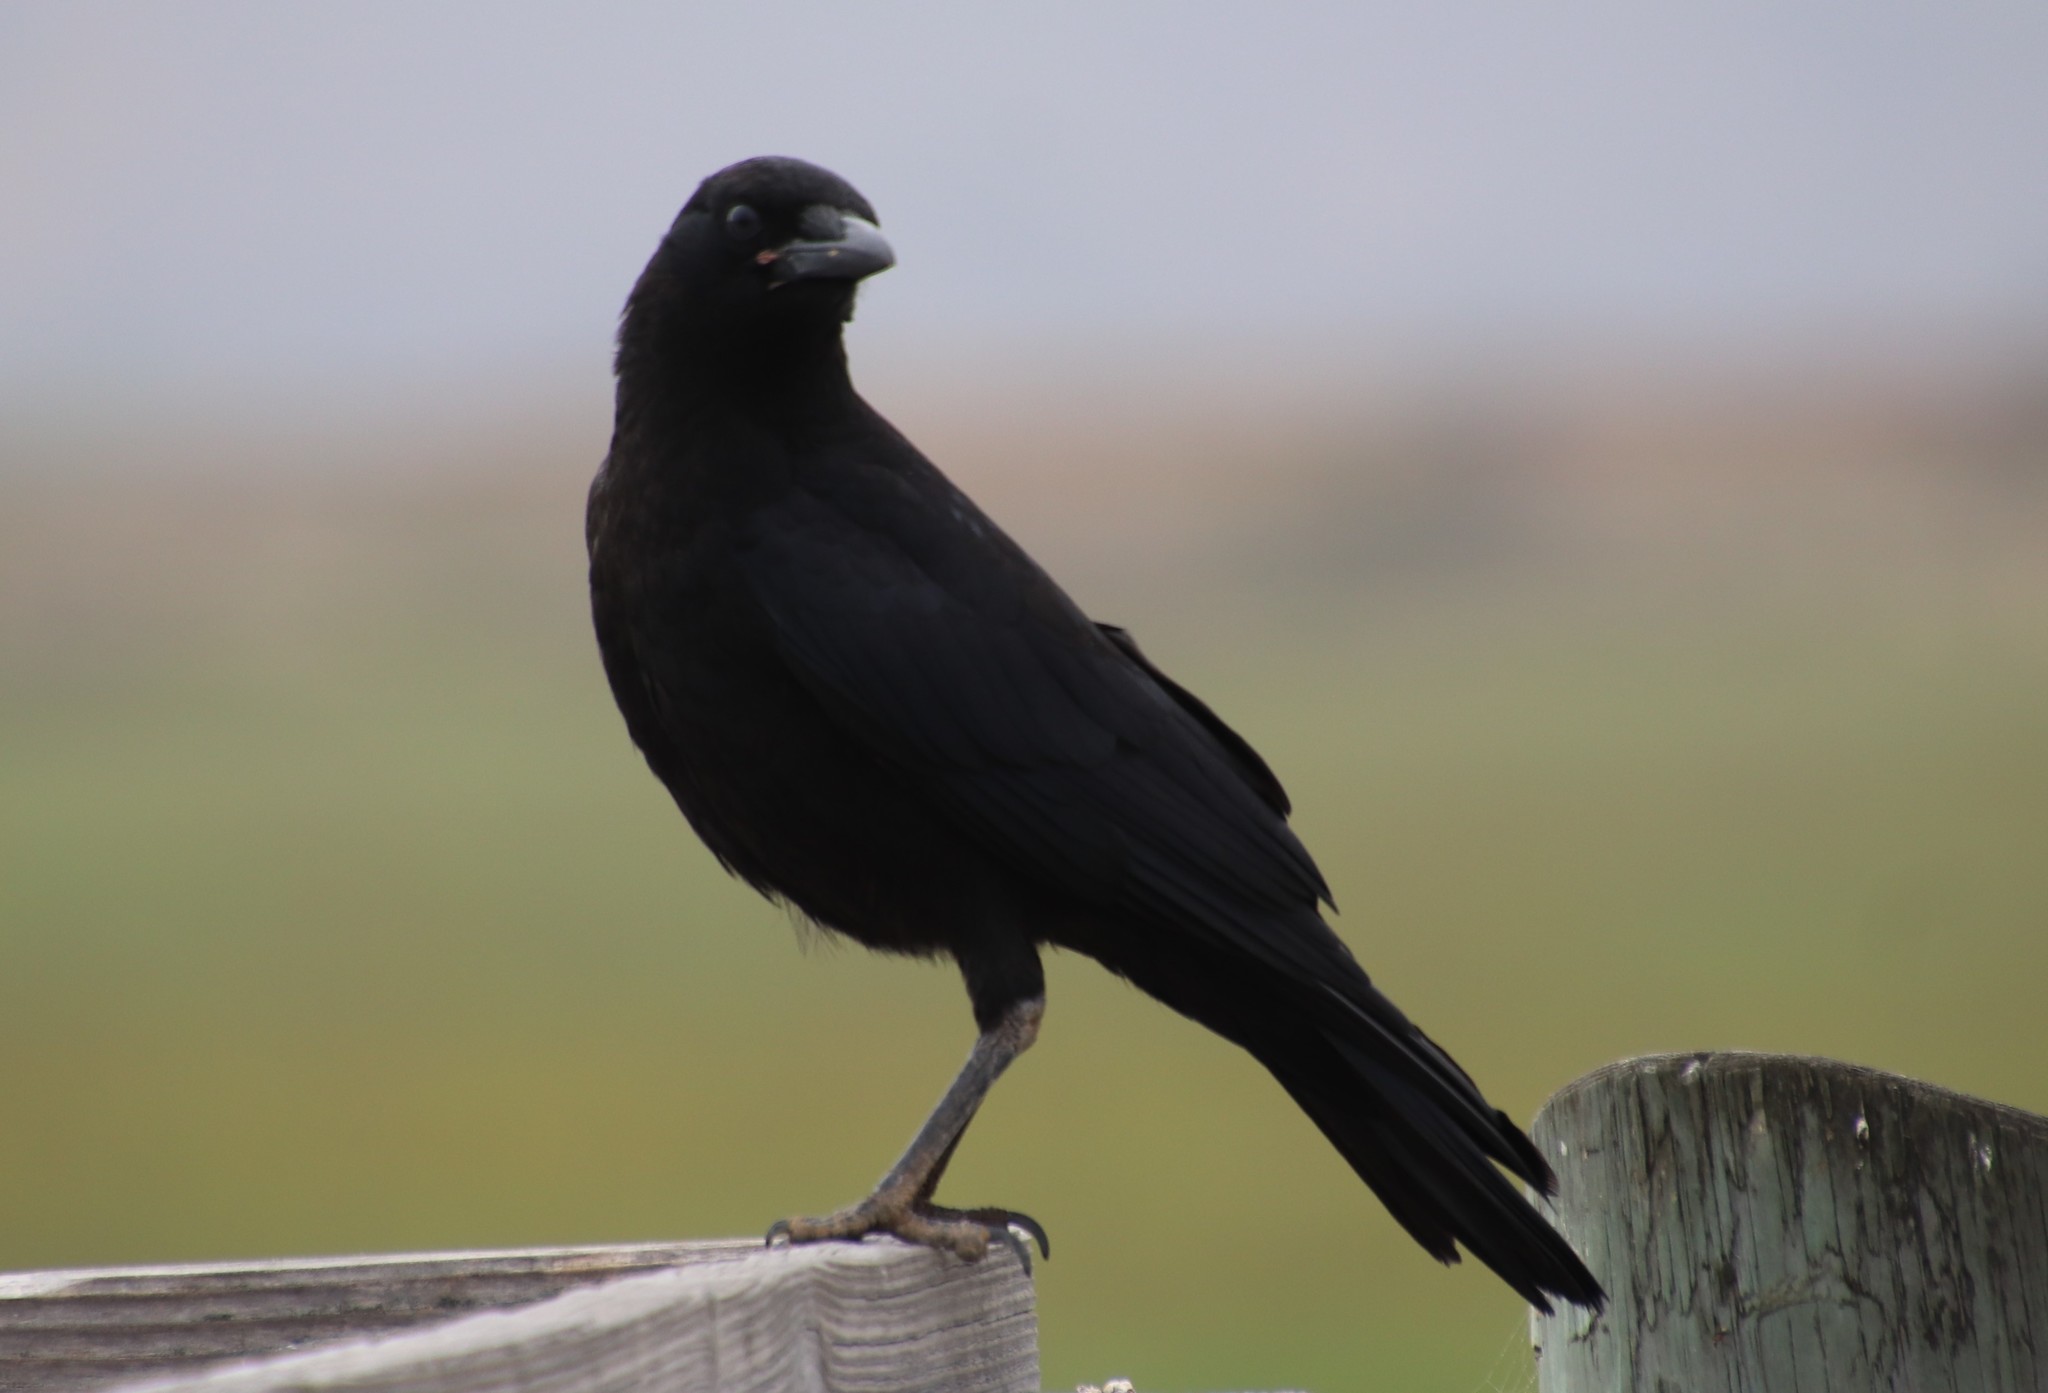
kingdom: Animalia
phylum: Chordata
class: Aves
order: Passeriformes
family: Corvidae
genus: Corvus
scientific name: Corvus brachyrhynchos
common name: American crow
